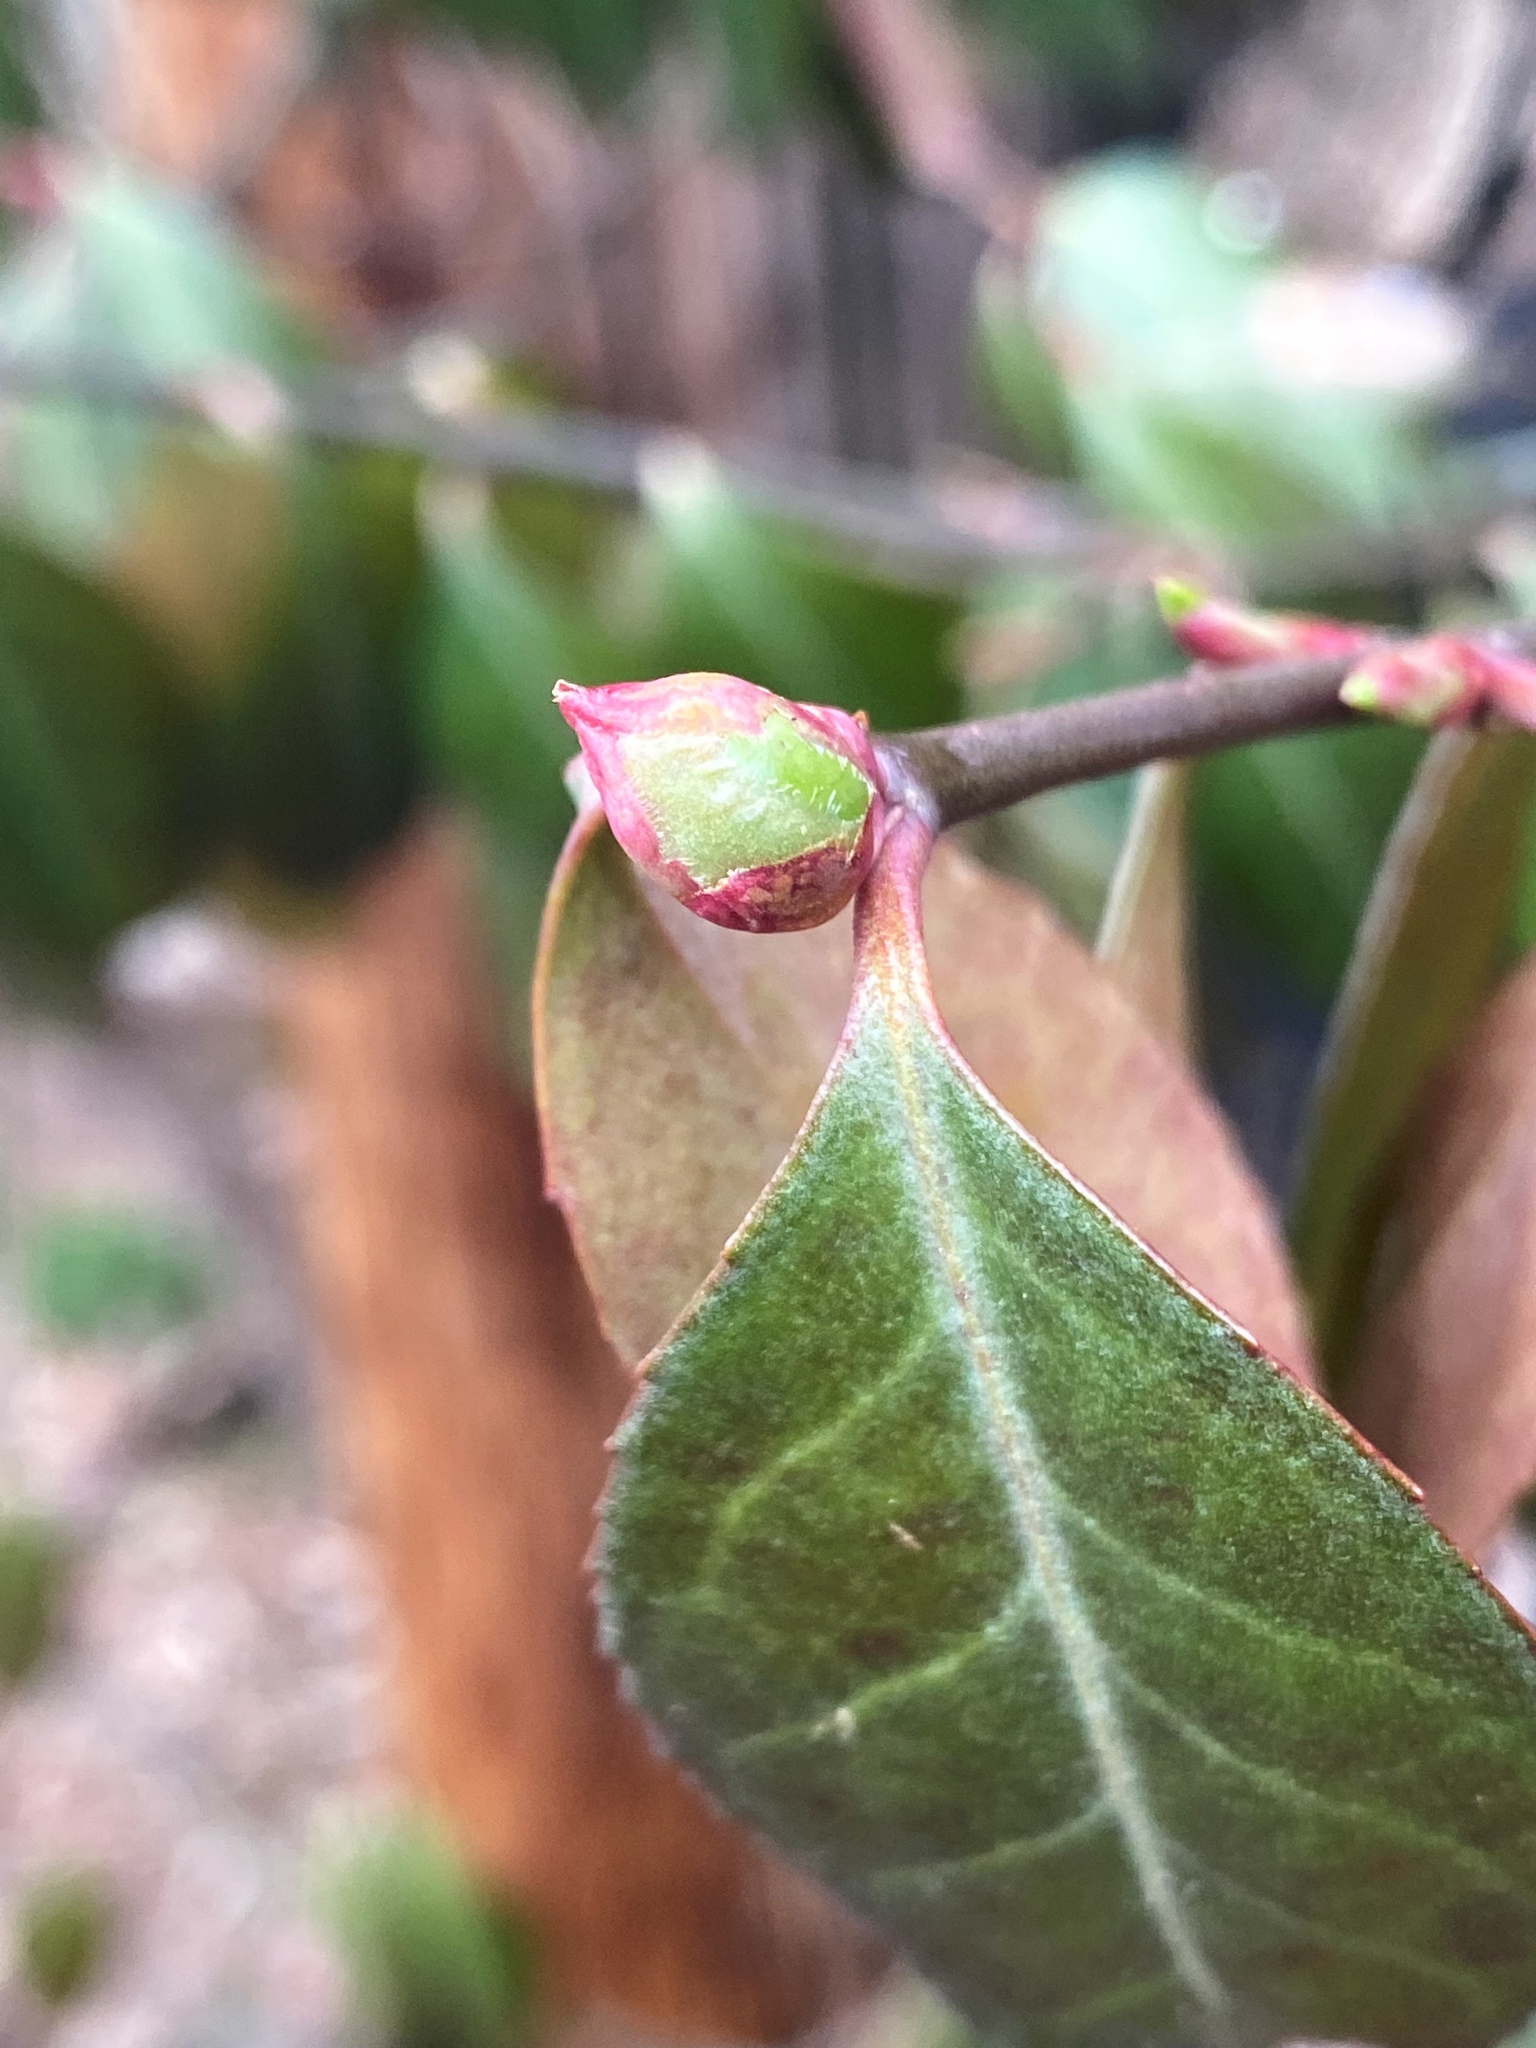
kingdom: Plantae
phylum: Tracheophyta
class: Magnoliopsida
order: Celastrales
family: Celastraceae
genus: Euonymus
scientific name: Euonymus fortunei
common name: Climbing euonymus
